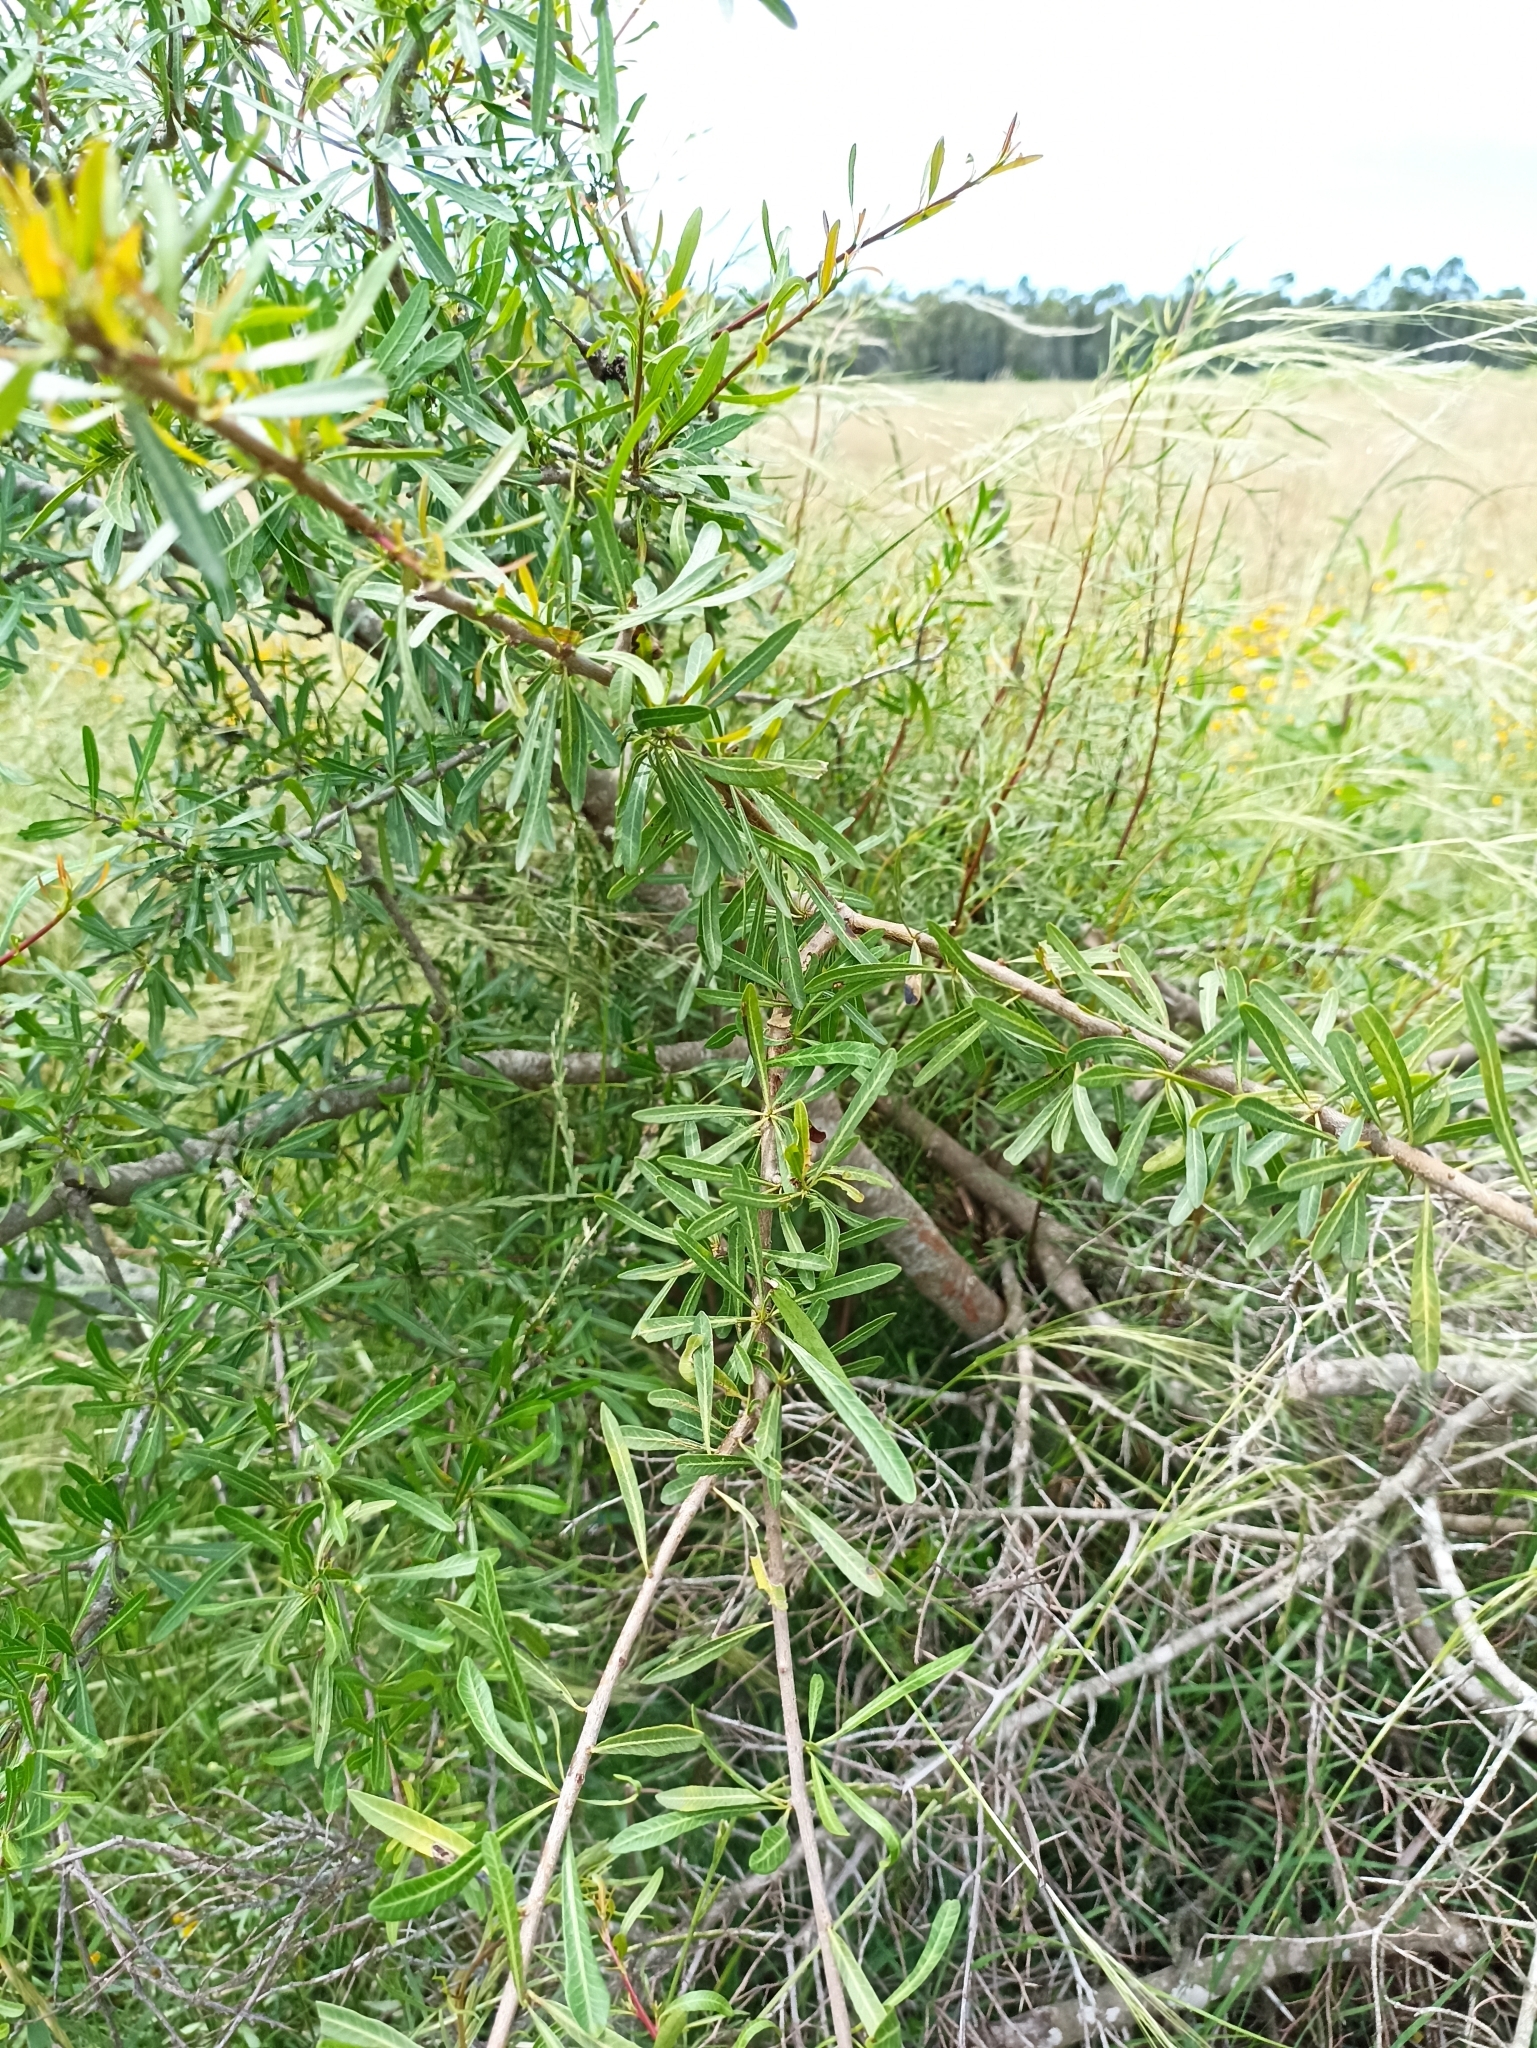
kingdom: Plantae
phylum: Tracheophyta
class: Magnoliopsida
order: Sapindales
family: Anacardiaceae
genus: Schinus
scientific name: Schinus longifolia
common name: Longleaf peppertree
